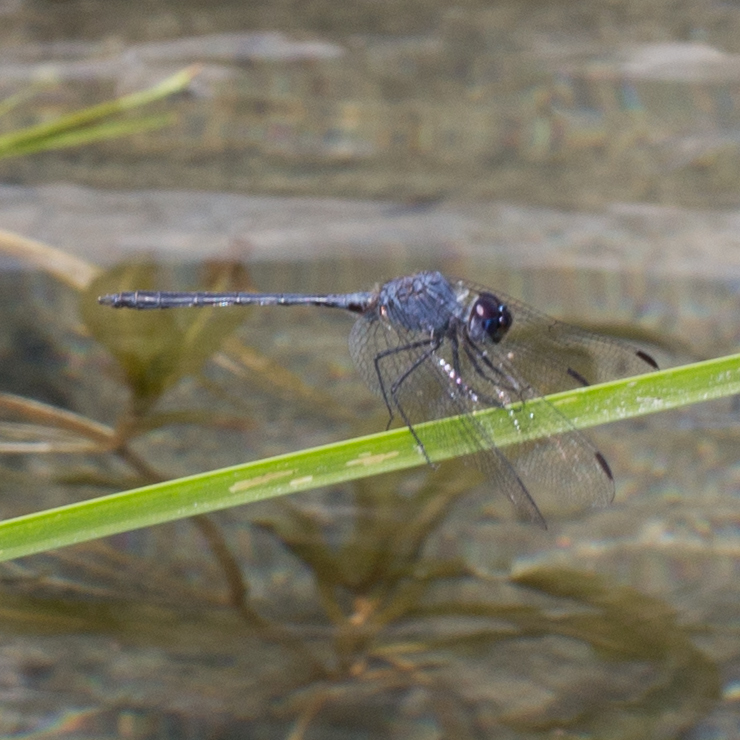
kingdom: Animalia
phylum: Arthropoda
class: Insecta
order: Odonata
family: Libellulidae
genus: Dythemis
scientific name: Dythemis nigrescens
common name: Black setwing
